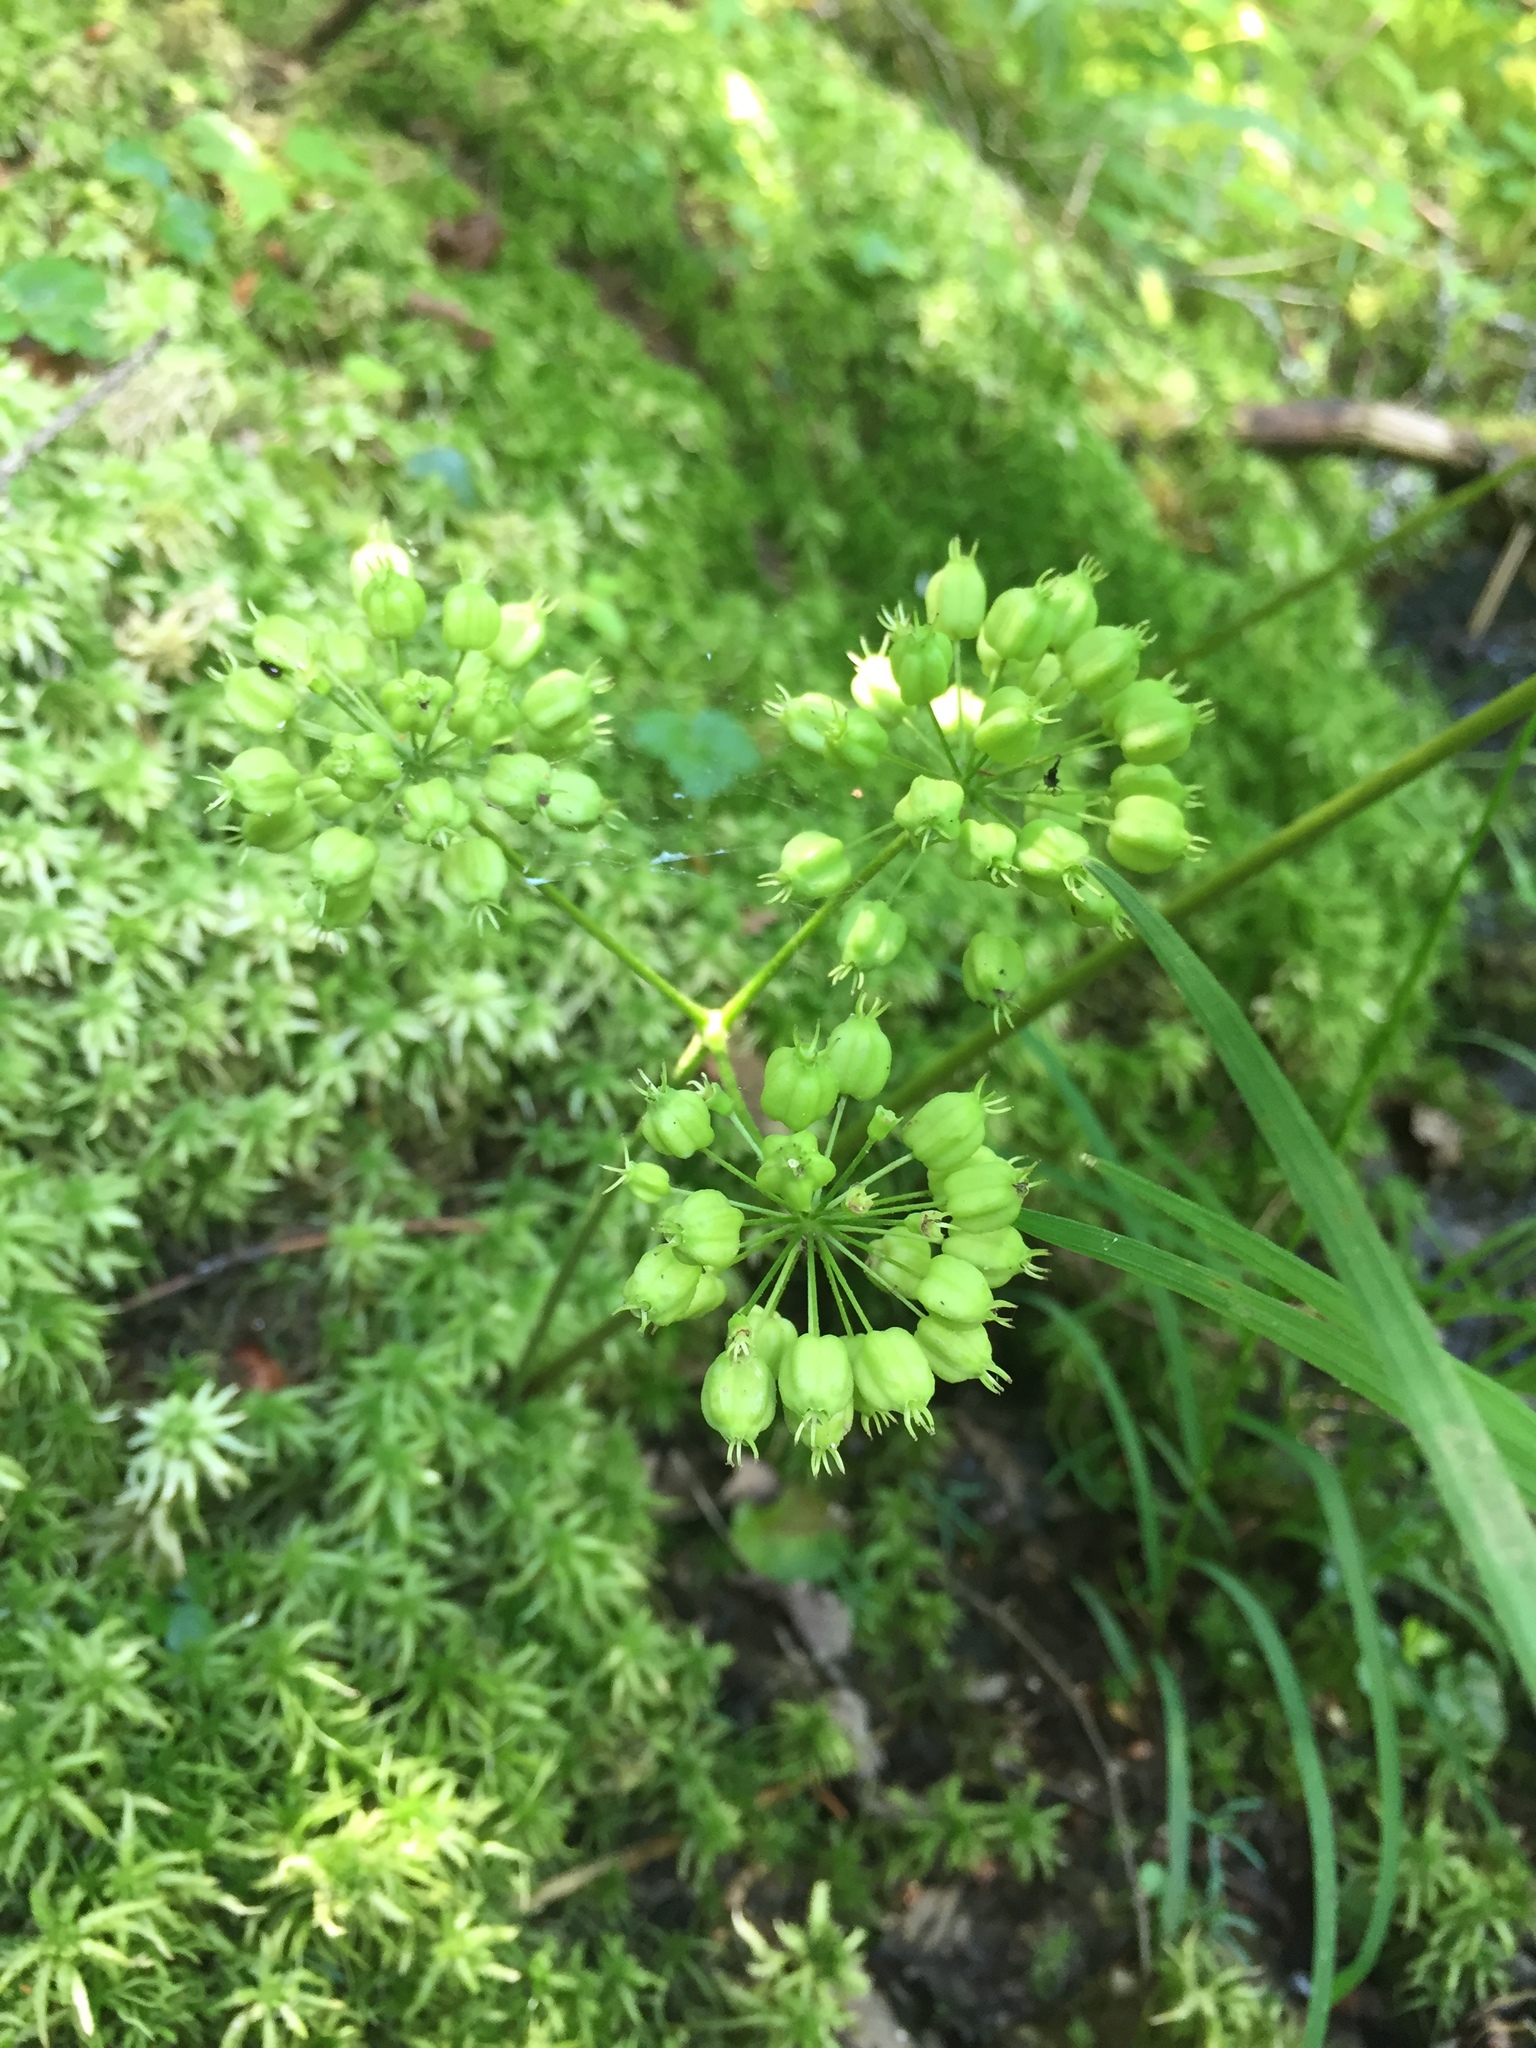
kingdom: Plantae
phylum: Tracheophyta
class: Magnoliopsida
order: Apiales
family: Araliaceae
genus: Aralia
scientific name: Aralia nudicaulis
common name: Wild sarsaparilla
